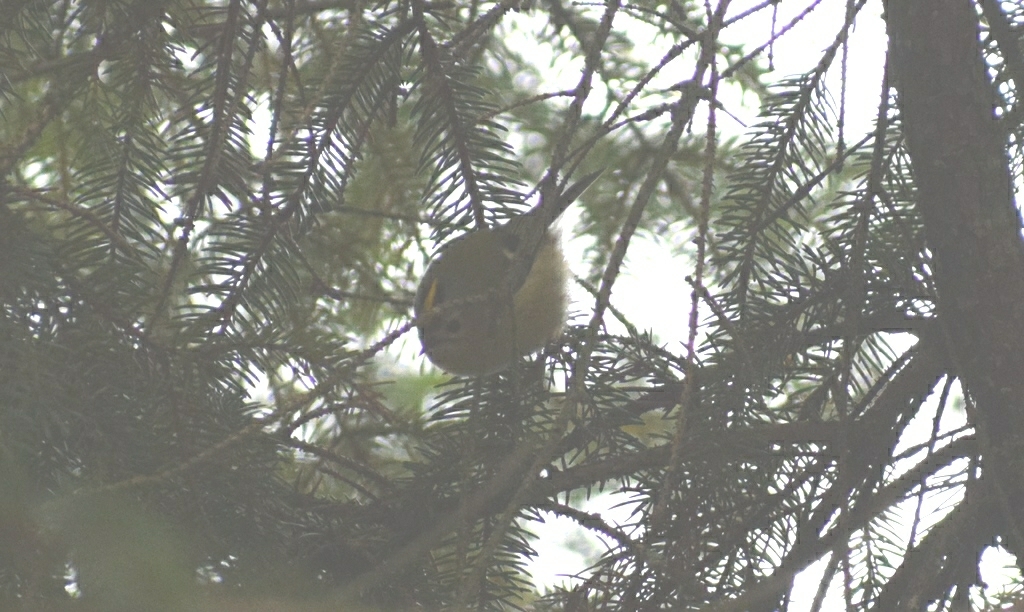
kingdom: Animalia
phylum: Chordata
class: Aves
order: Passeriformes
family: Regulidae
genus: Regulus
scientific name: Regulus regulus
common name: Goldcrest
